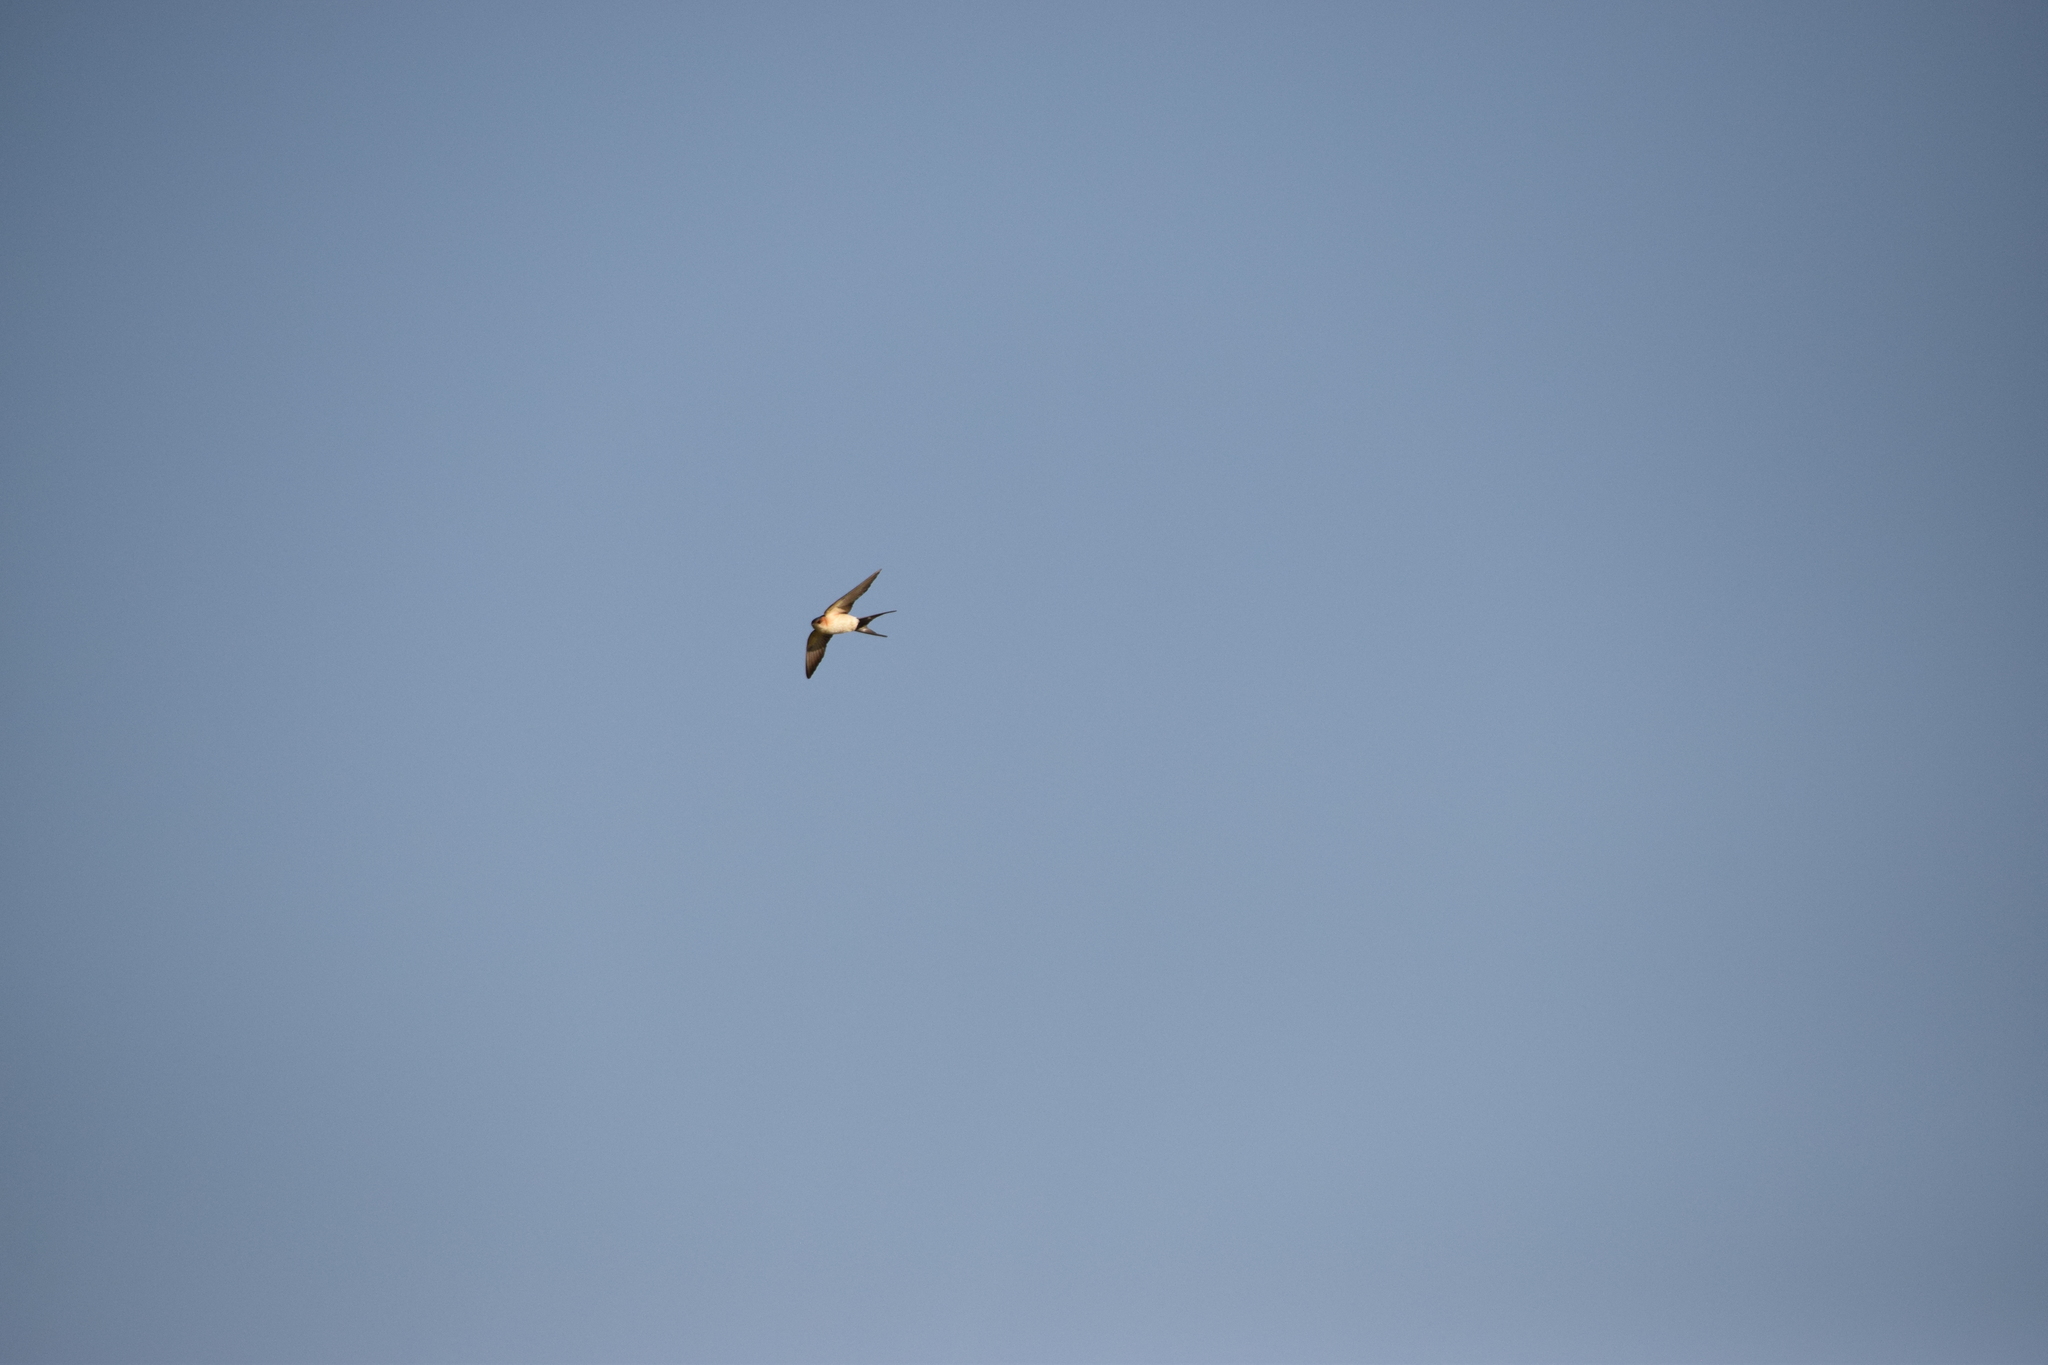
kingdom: Animalia
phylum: Chordata
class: Aves
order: Passeriformes
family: Hirundinidae
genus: Cecropis
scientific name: Cecropis daurica
